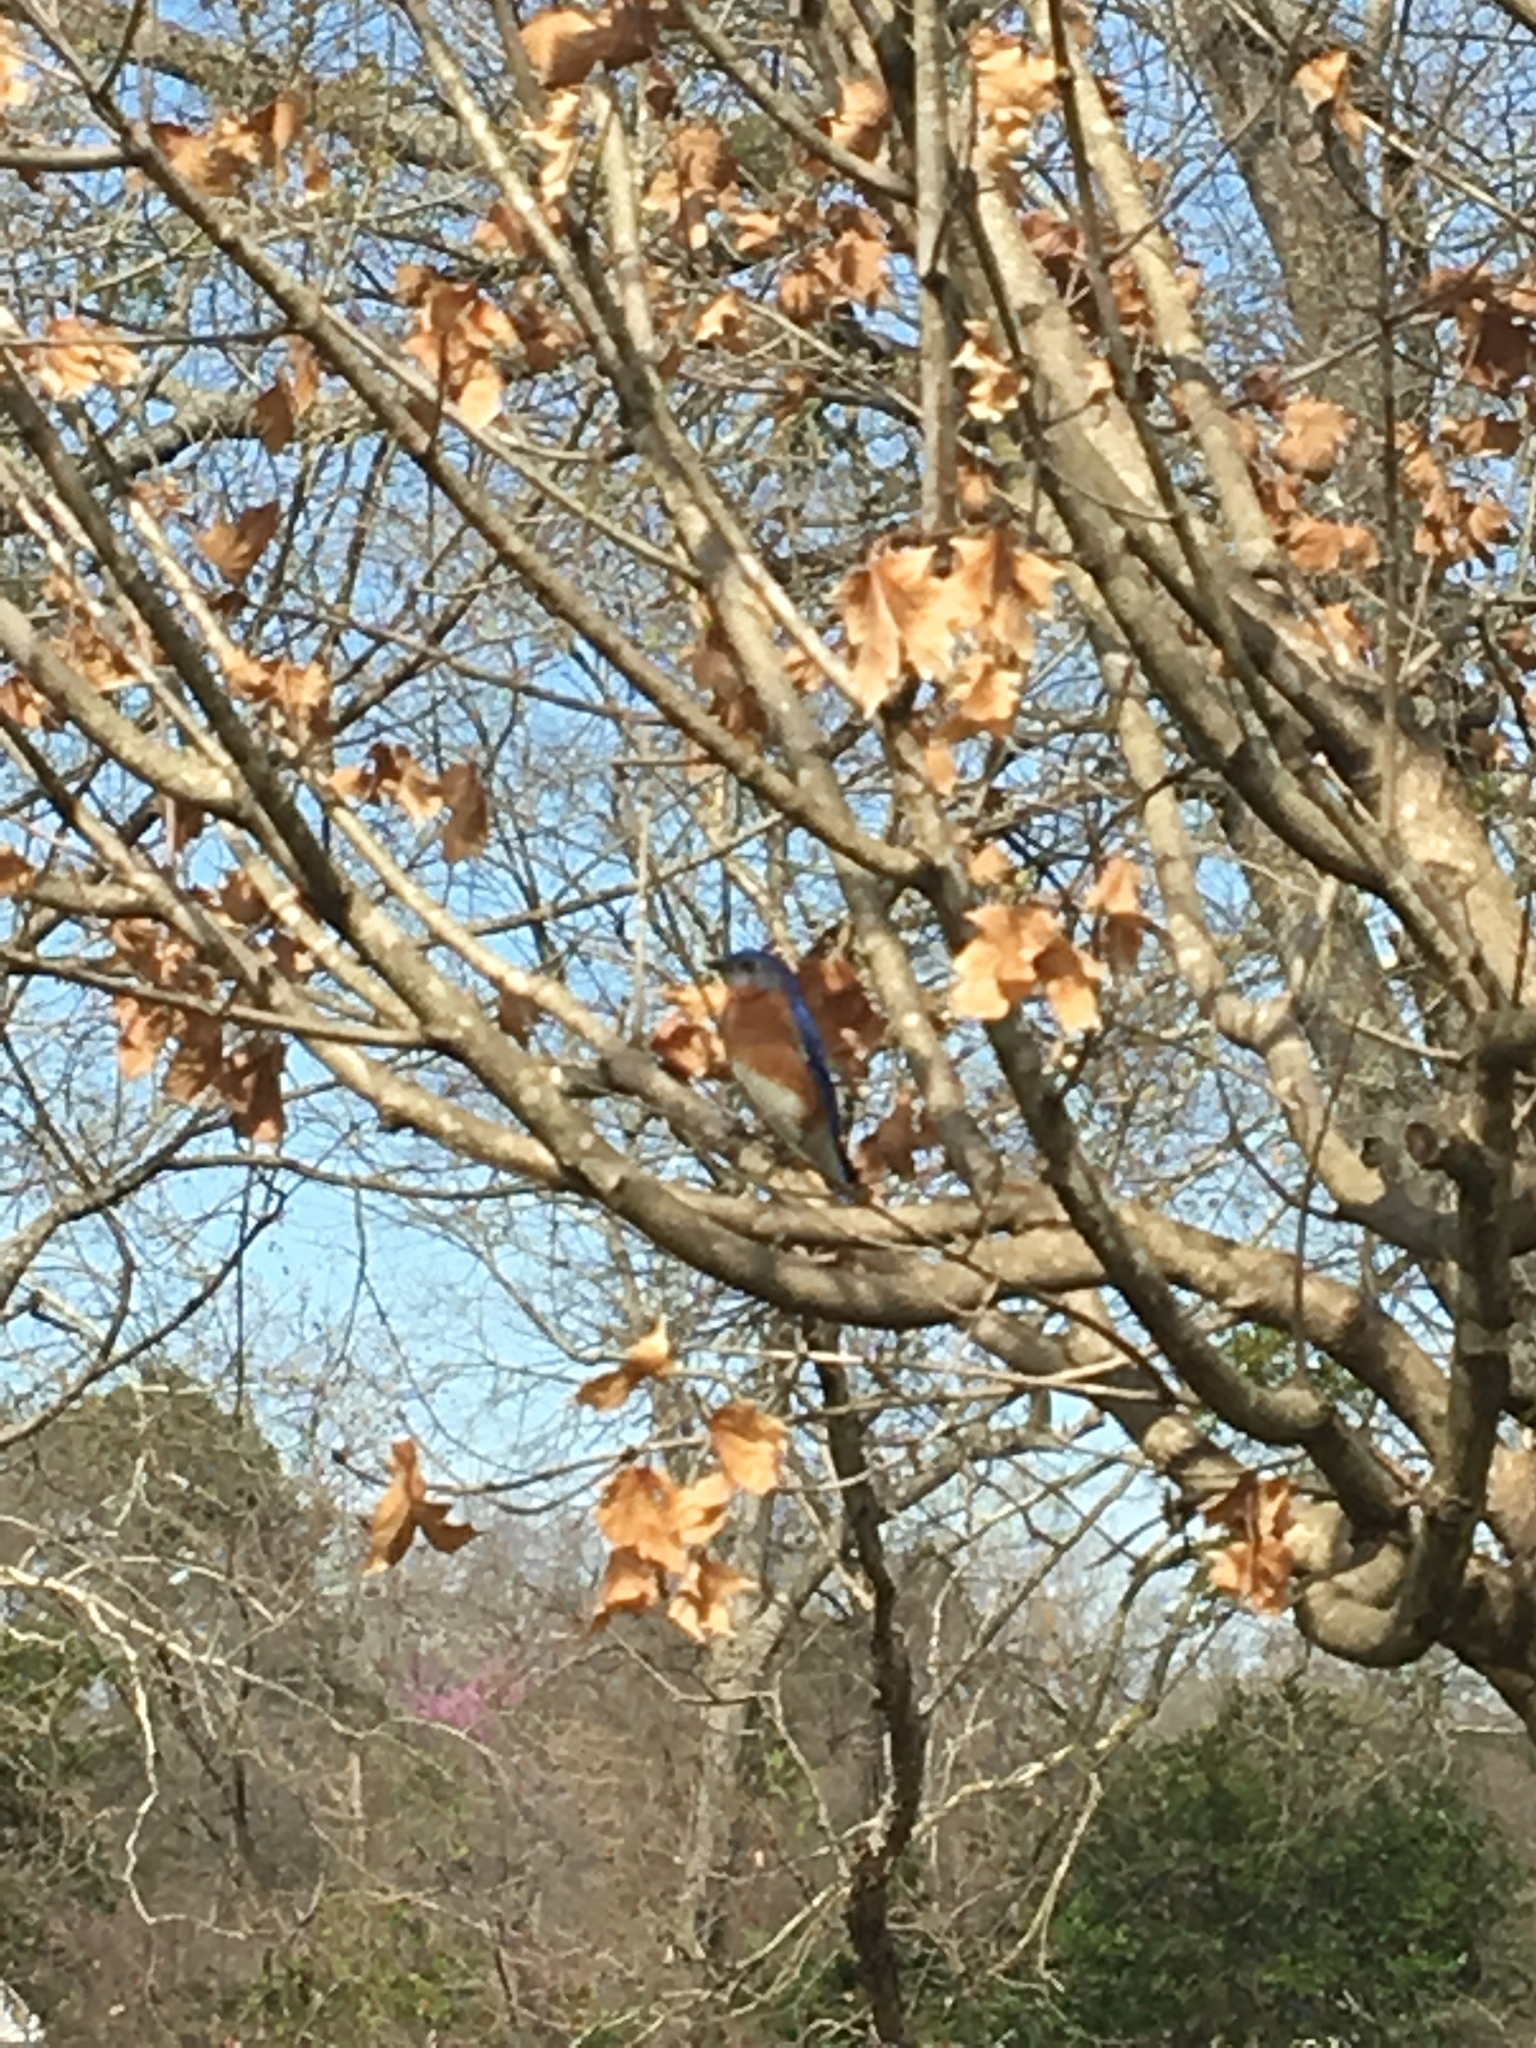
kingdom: Animalia
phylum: Chordata
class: Aves
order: Passeriformes
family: Turdidae
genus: Sialia
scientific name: Sialia sialis
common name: Eastern bluebird
